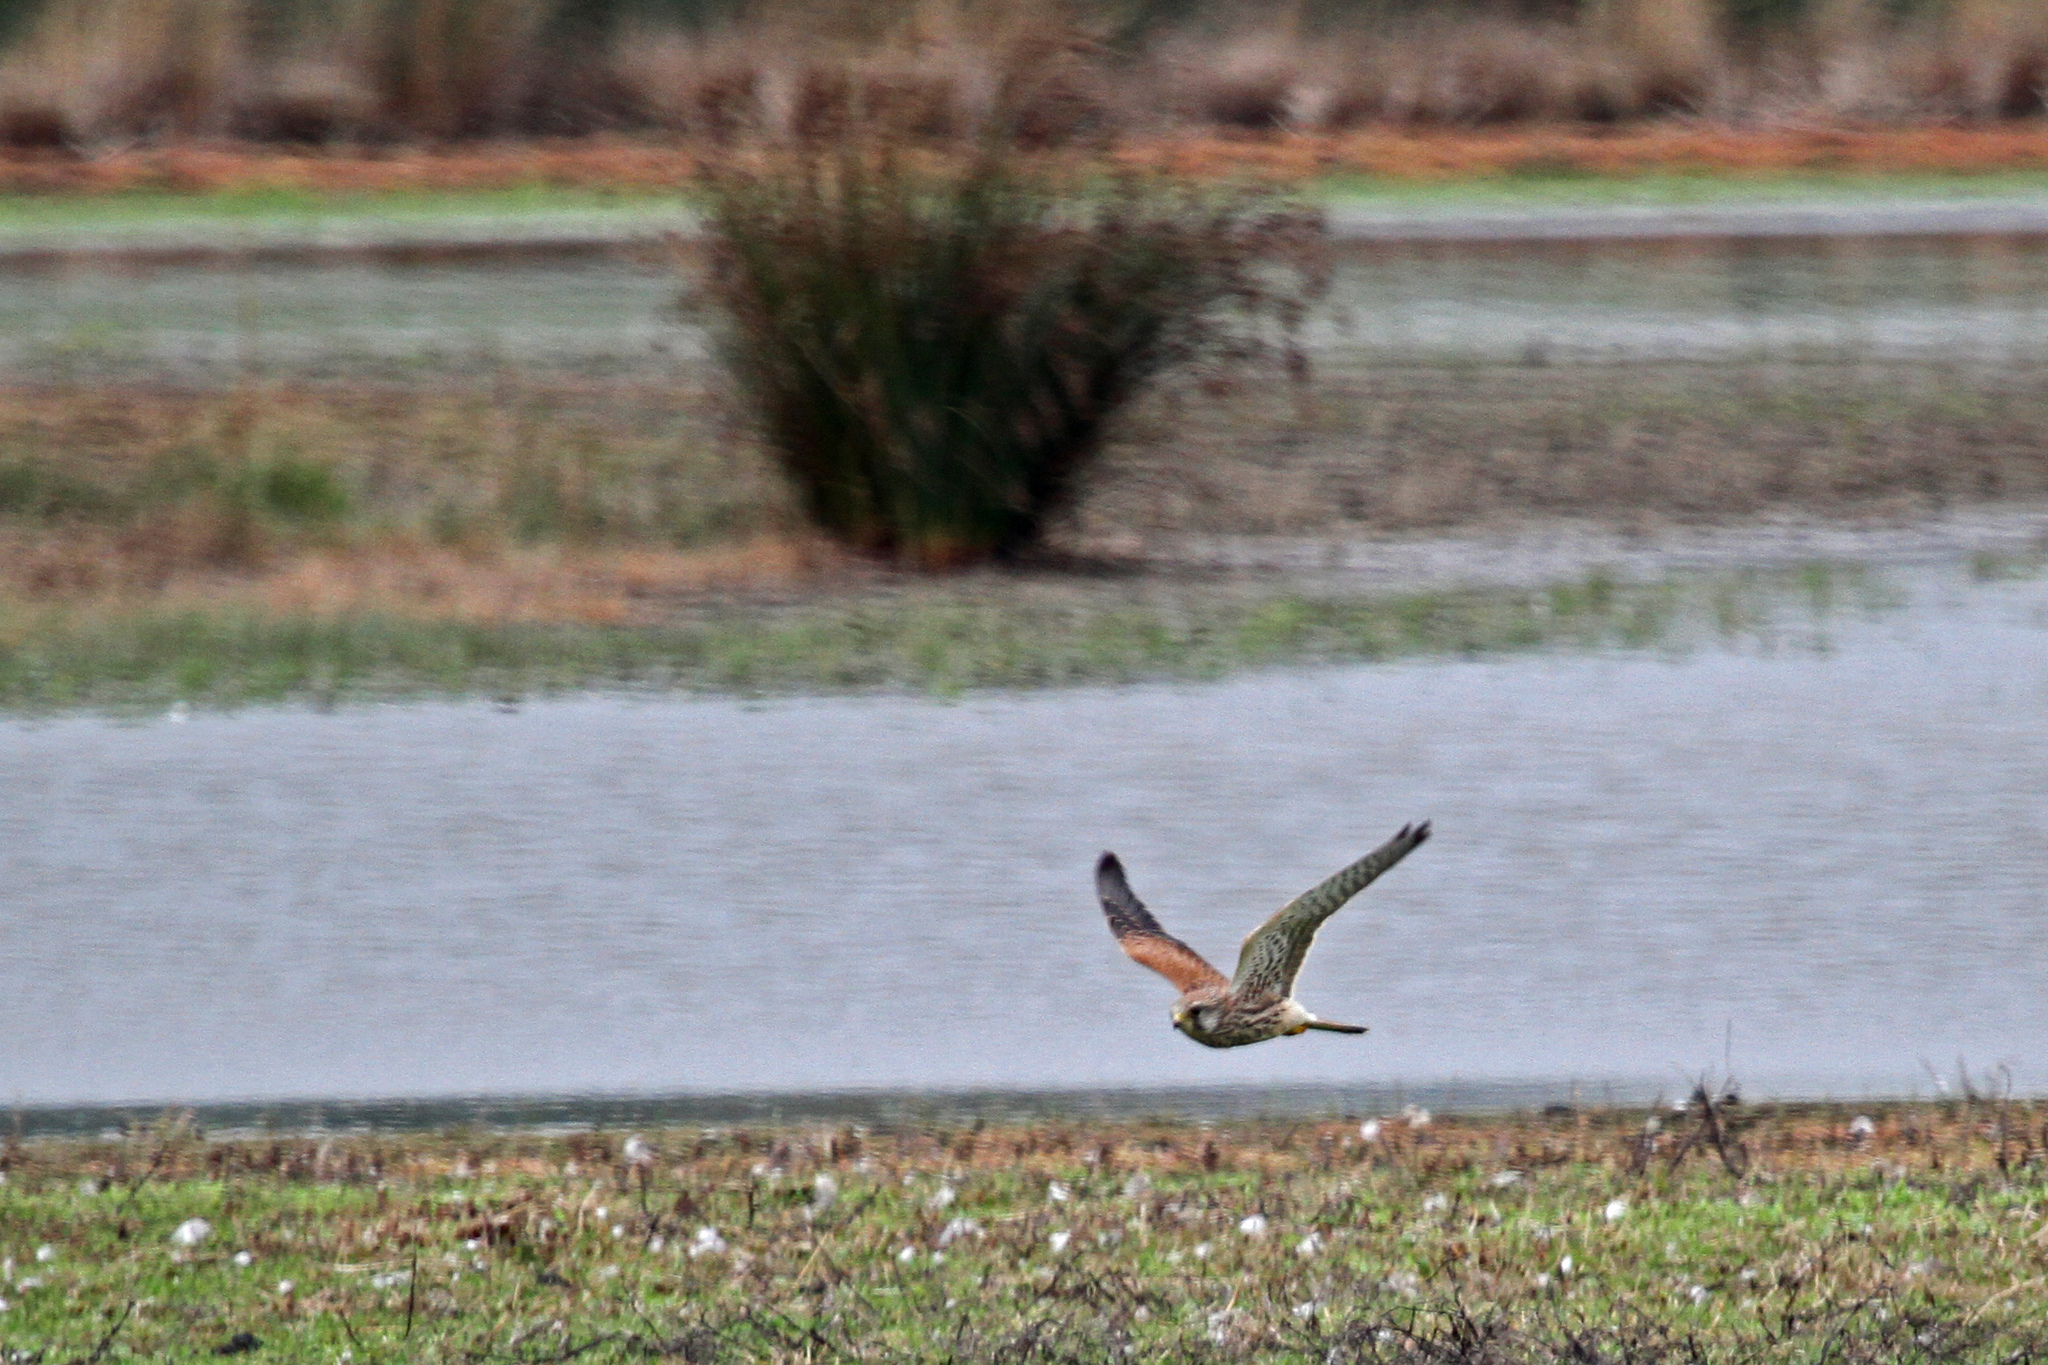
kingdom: Animalia
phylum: Chordata
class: Aves
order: Falconiformes
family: Falconidae
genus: Falco
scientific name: Falco tinnunculus
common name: Common kestrel
